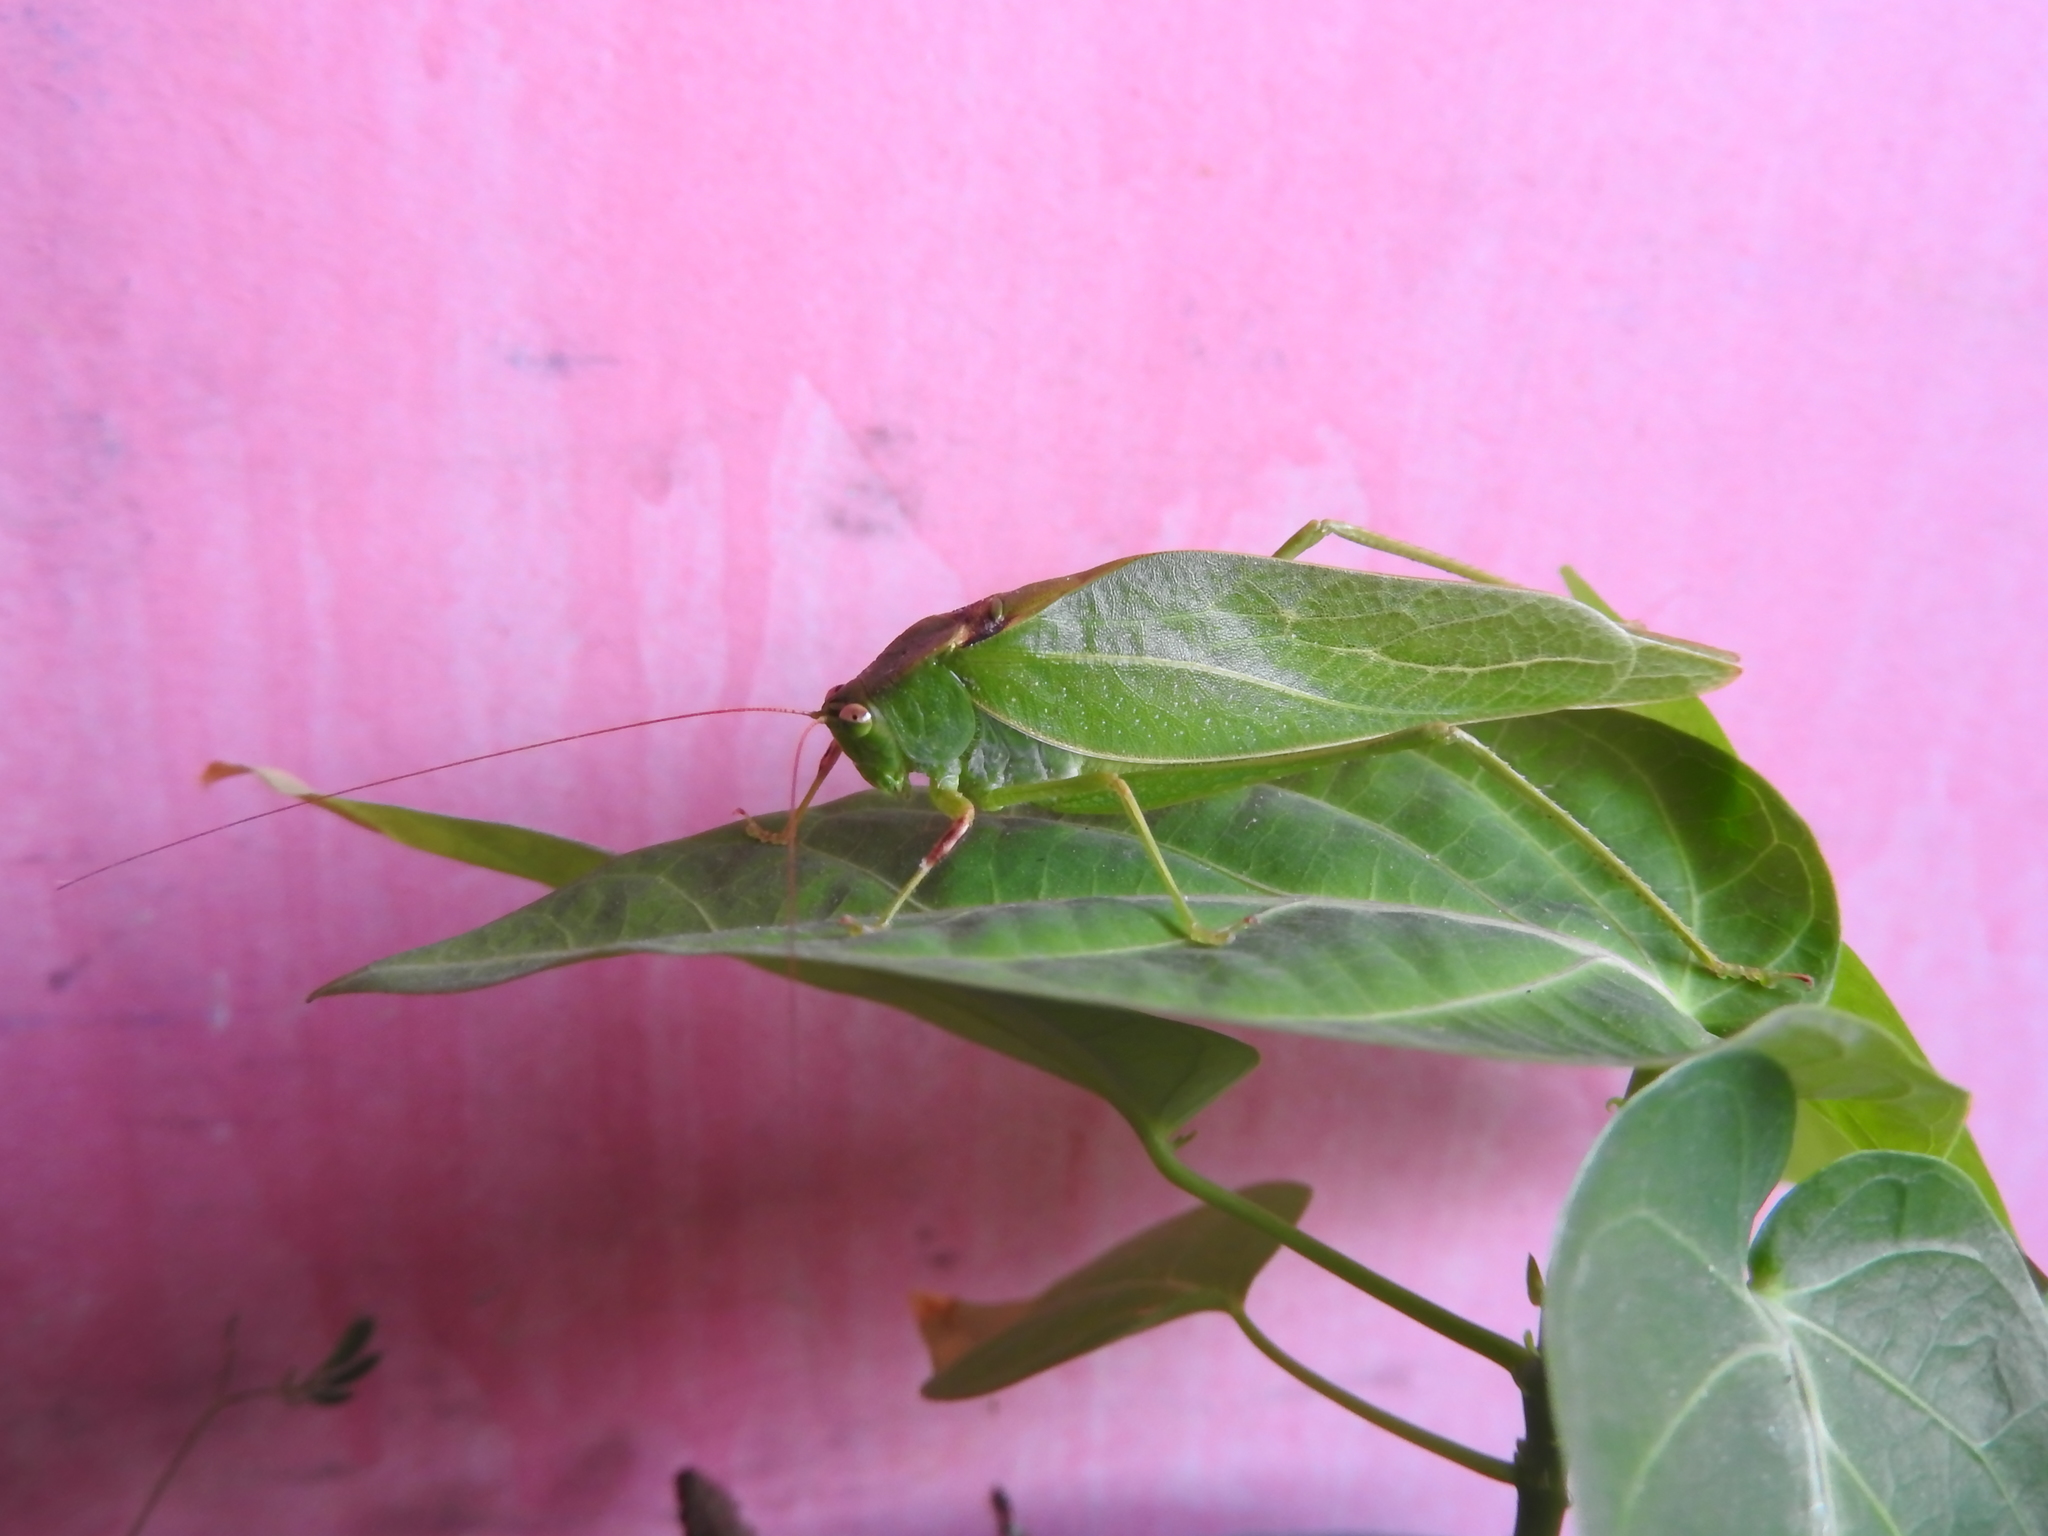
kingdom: Animalia
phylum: Arthropoda
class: Insecta
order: Orthoptera
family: Tettigoniidae
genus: Syntechna
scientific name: Syntechna tarasca
